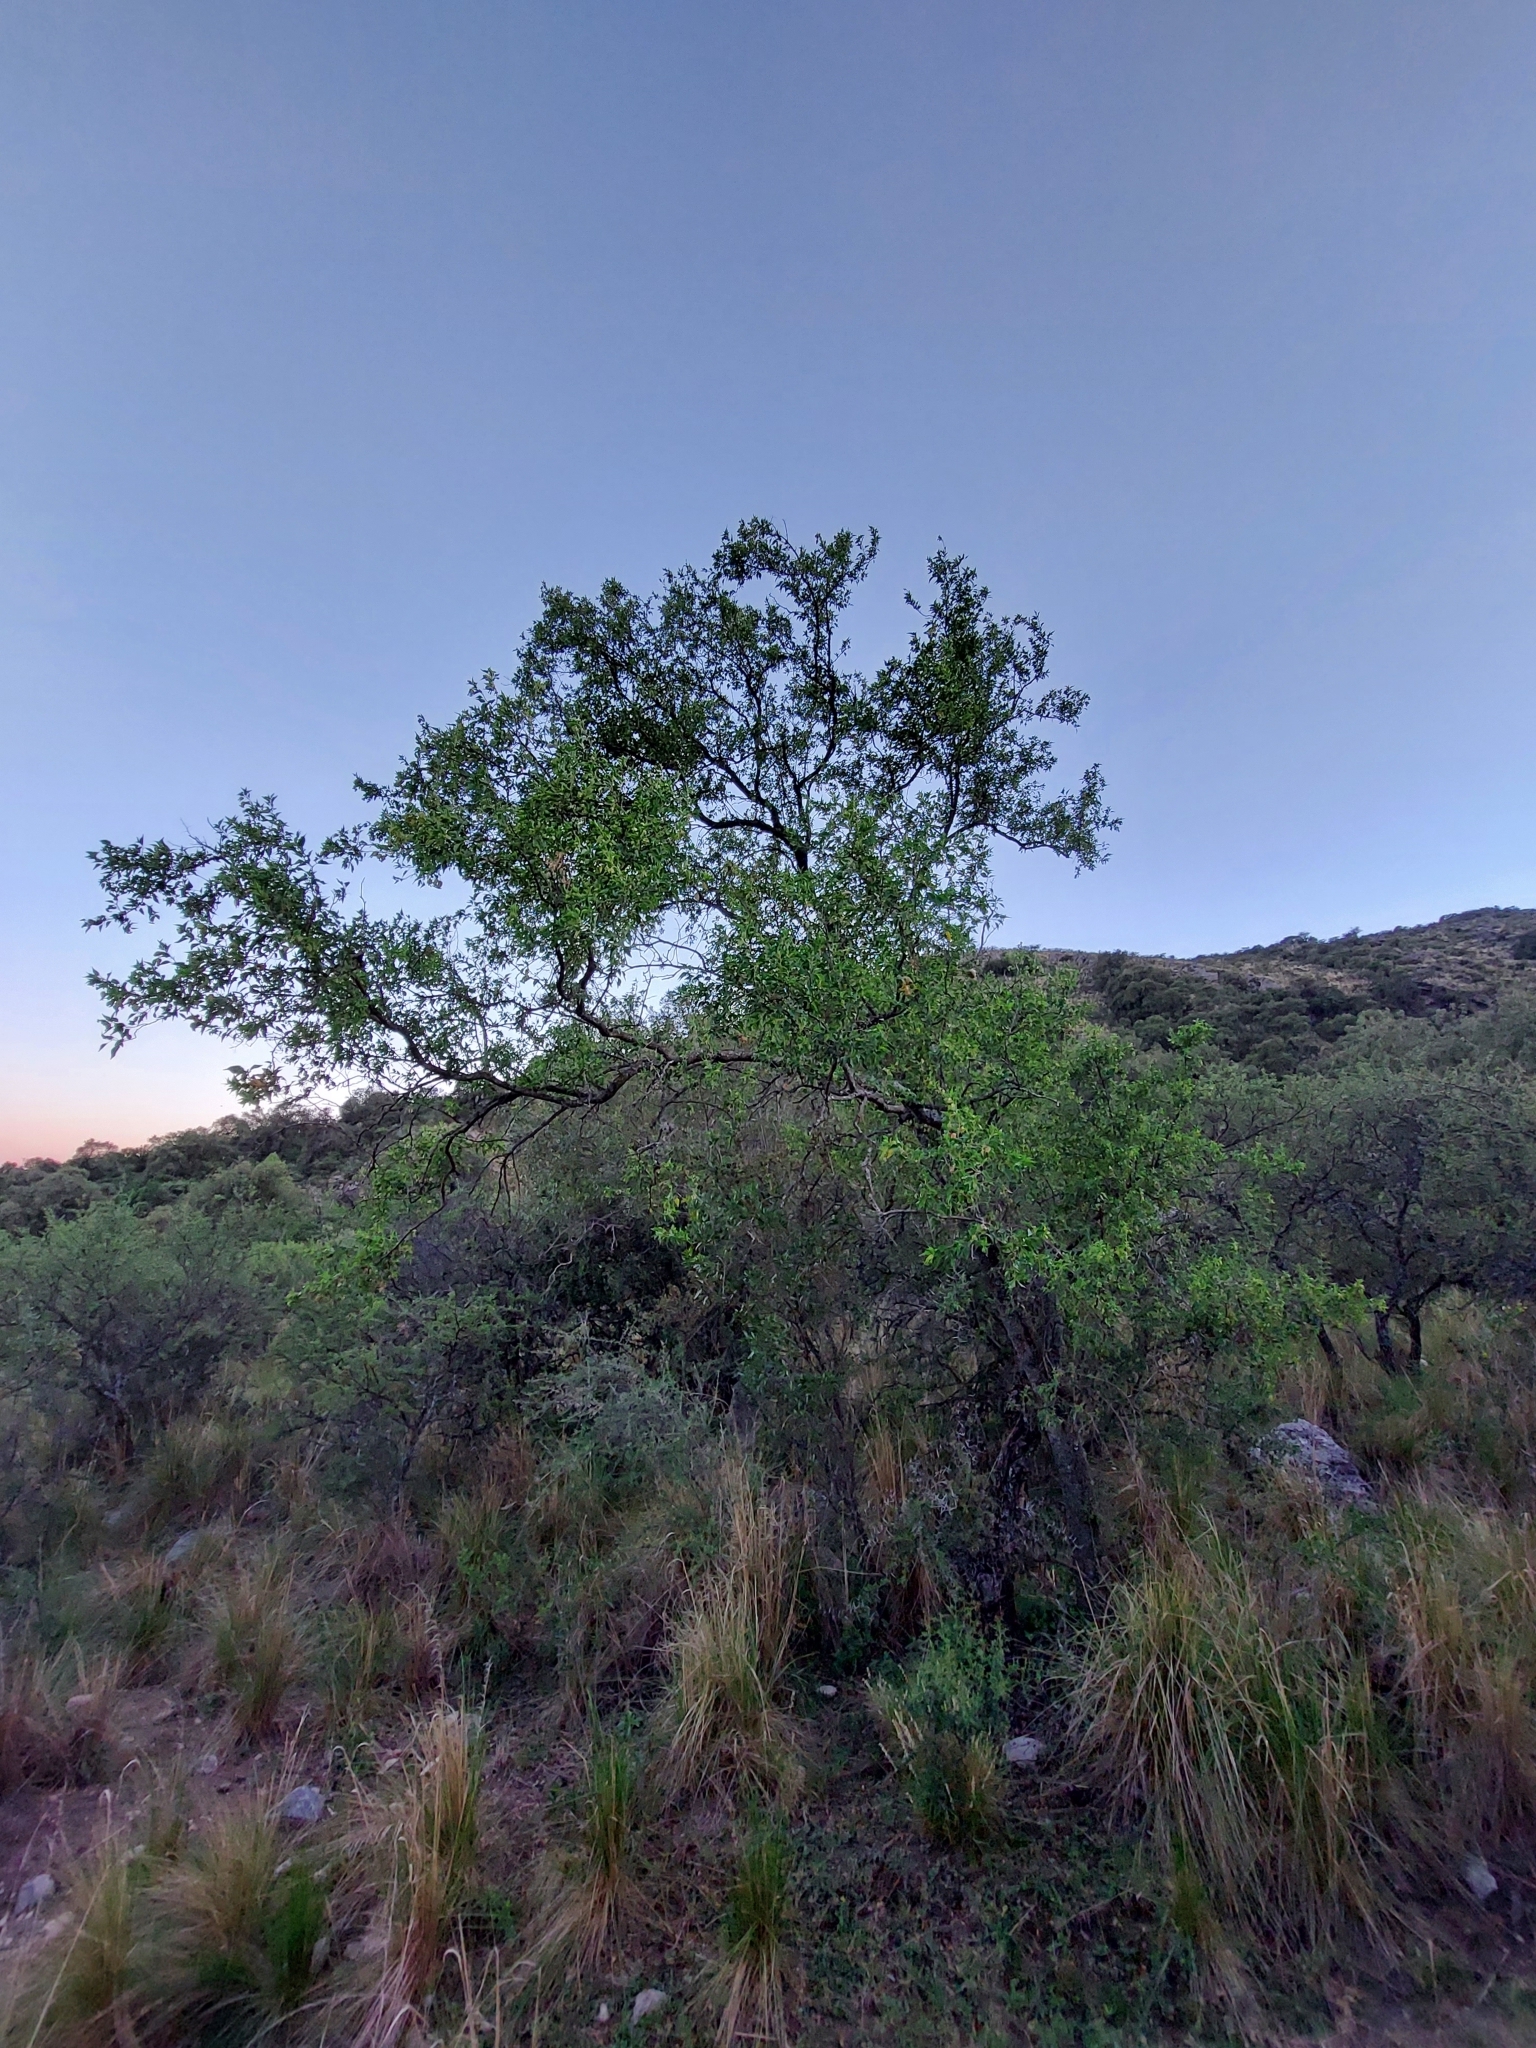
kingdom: Plantae
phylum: Tracheophyta
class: Magnoliopsida
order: Caryophyllales
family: Nyctaginaceae
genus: Bougainvillea
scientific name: Bougainvillea stipitata
